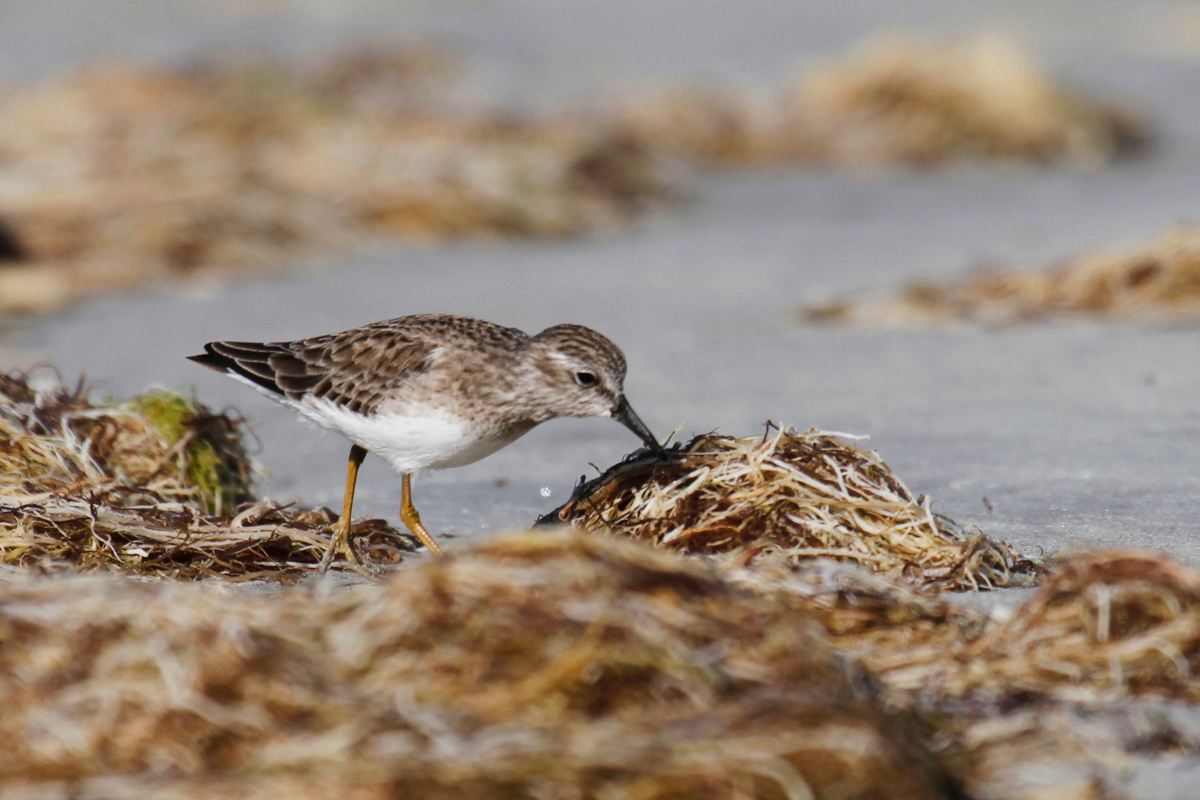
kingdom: Animalia
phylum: Chordata
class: Aves
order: Charadriiformes
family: Scolopacidae
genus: Calidris
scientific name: Calidris minutilla
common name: Least sandpiper
